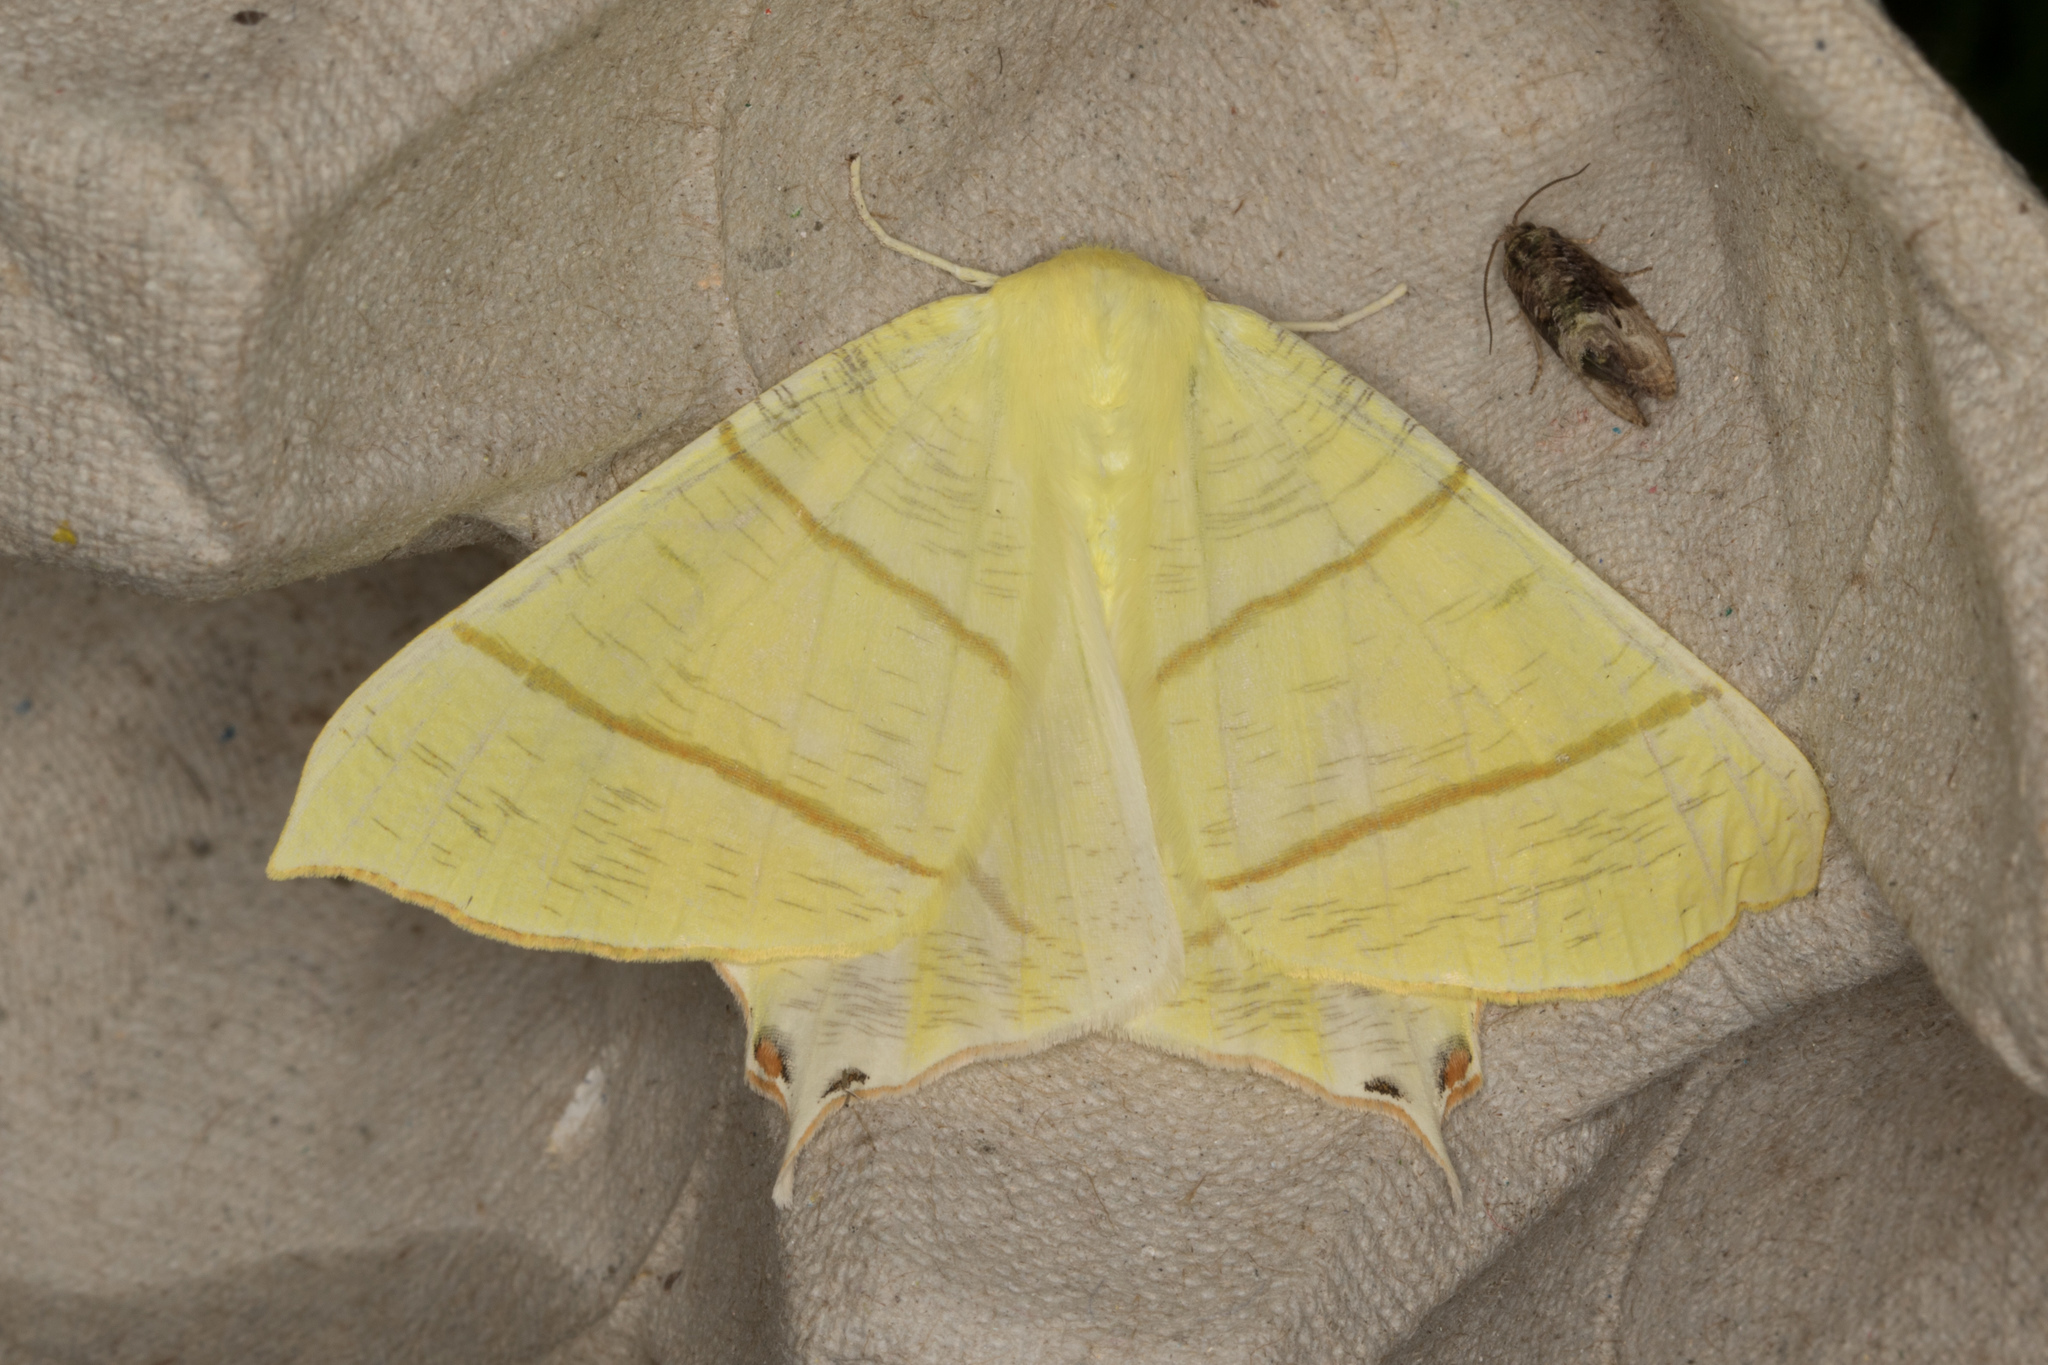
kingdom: Animalia
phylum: Arthropoda
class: Insecta
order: Lepidoptera
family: Geometridae
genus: Ourapteryx
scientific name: Ourapteryx sambucaria
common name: Swallow-tailed moth
